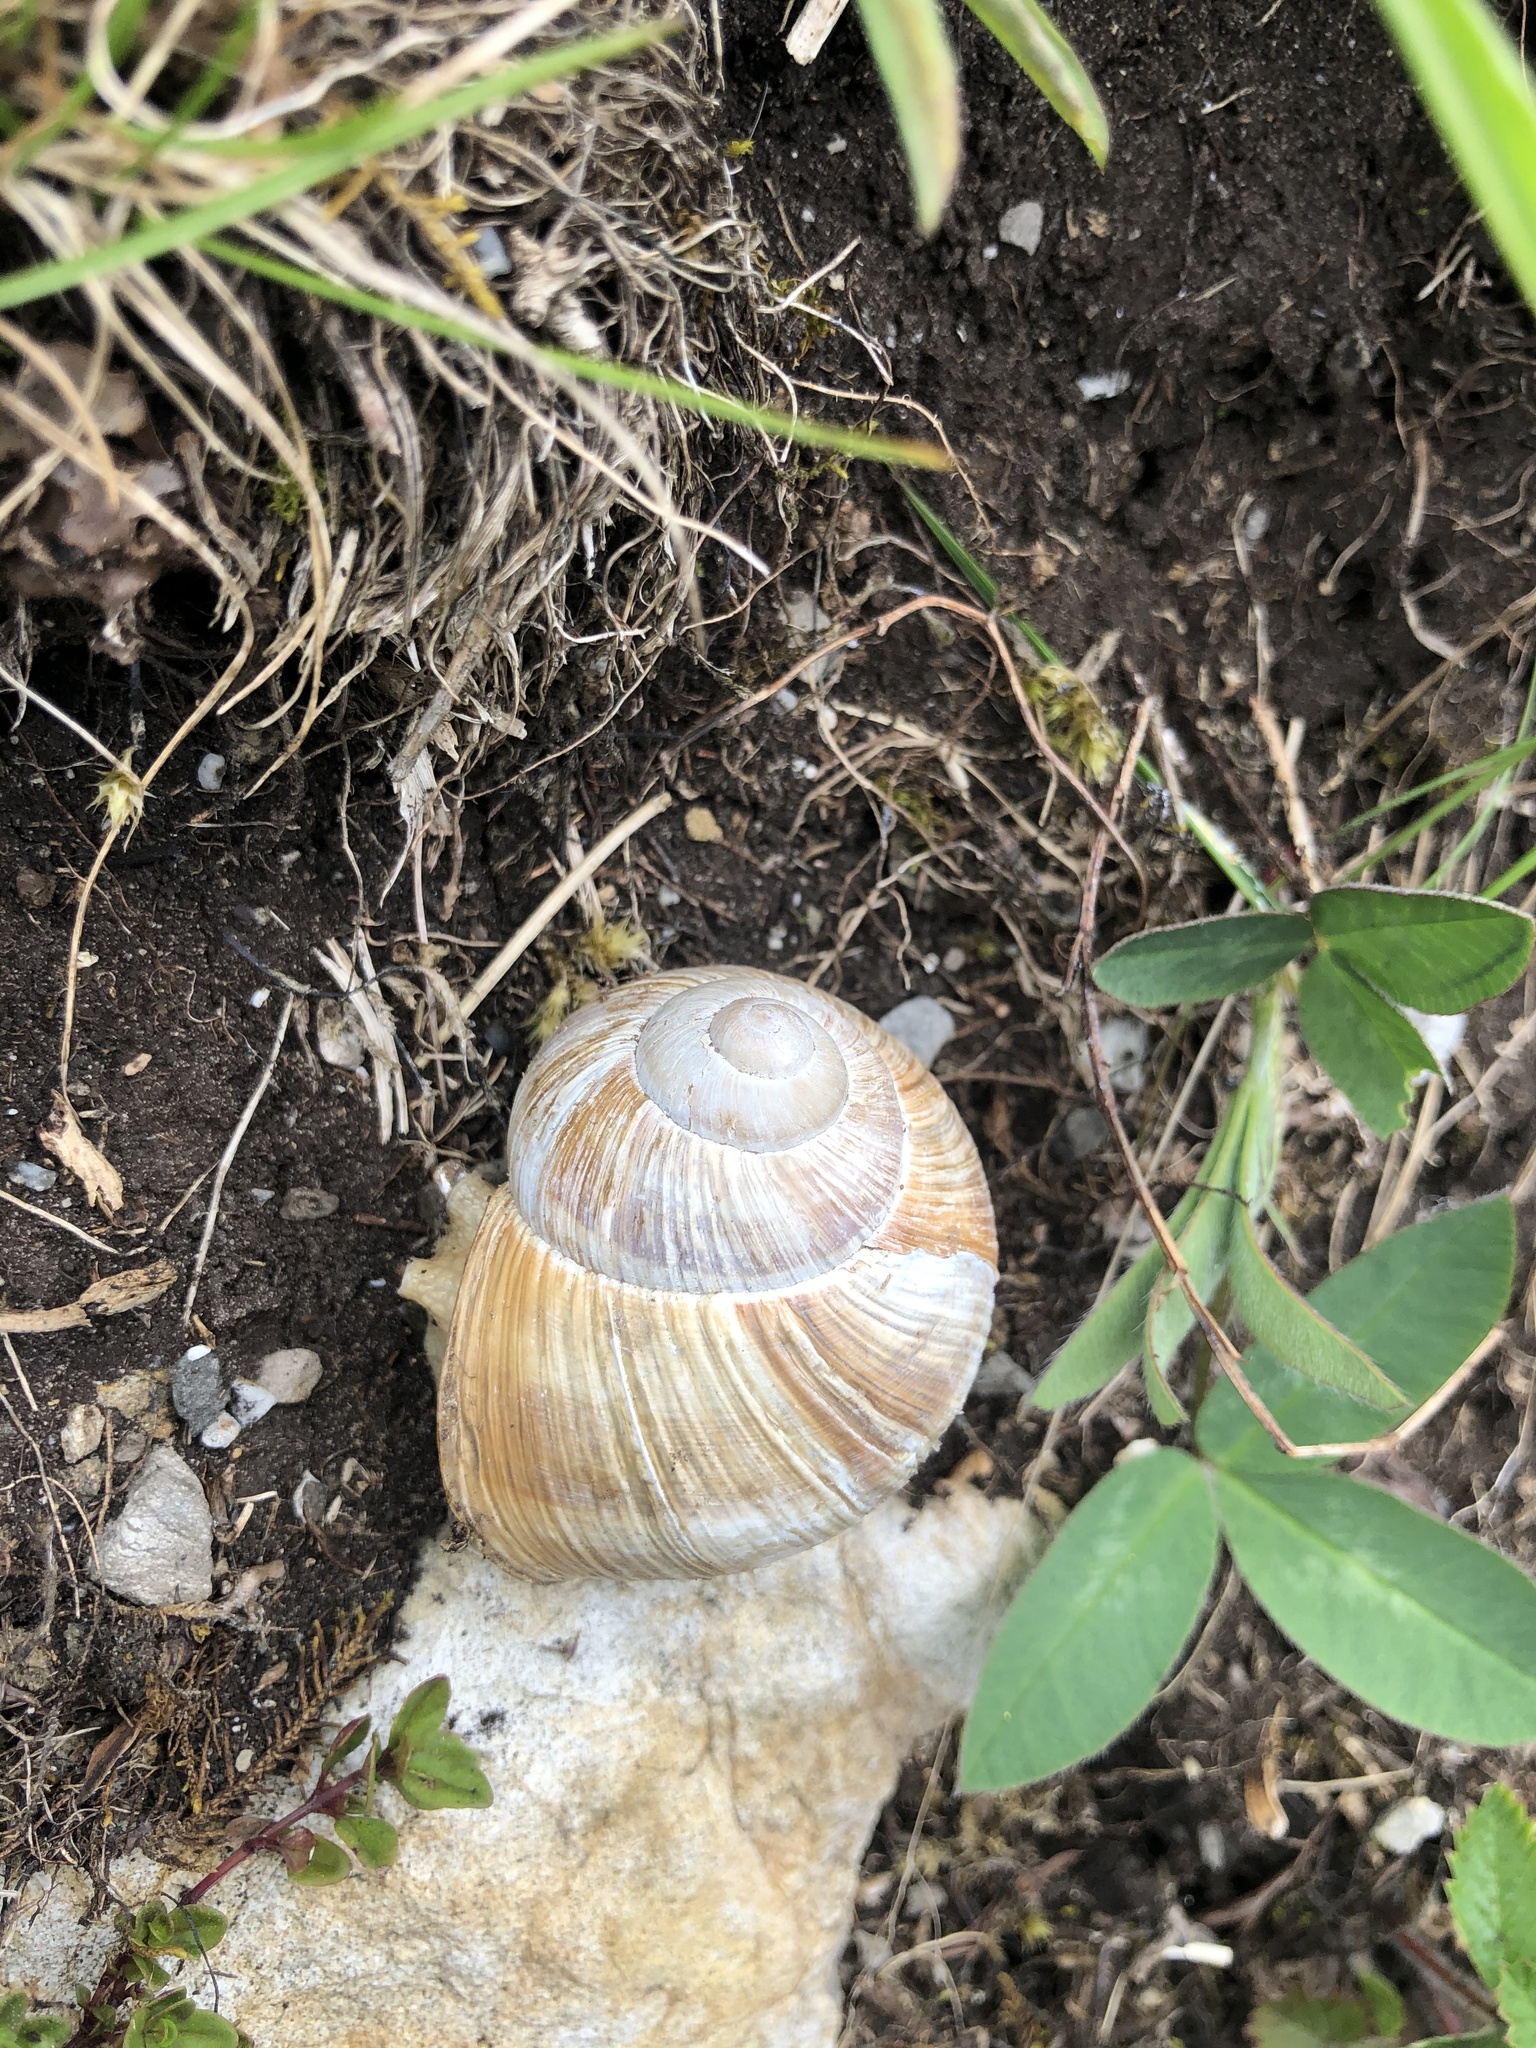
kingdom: Animalia
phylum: Mollusca
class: Gastropoda
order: Stylommatophora
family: Helicidae
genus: Helix
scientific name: Helix pomatia
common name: Roman snail
